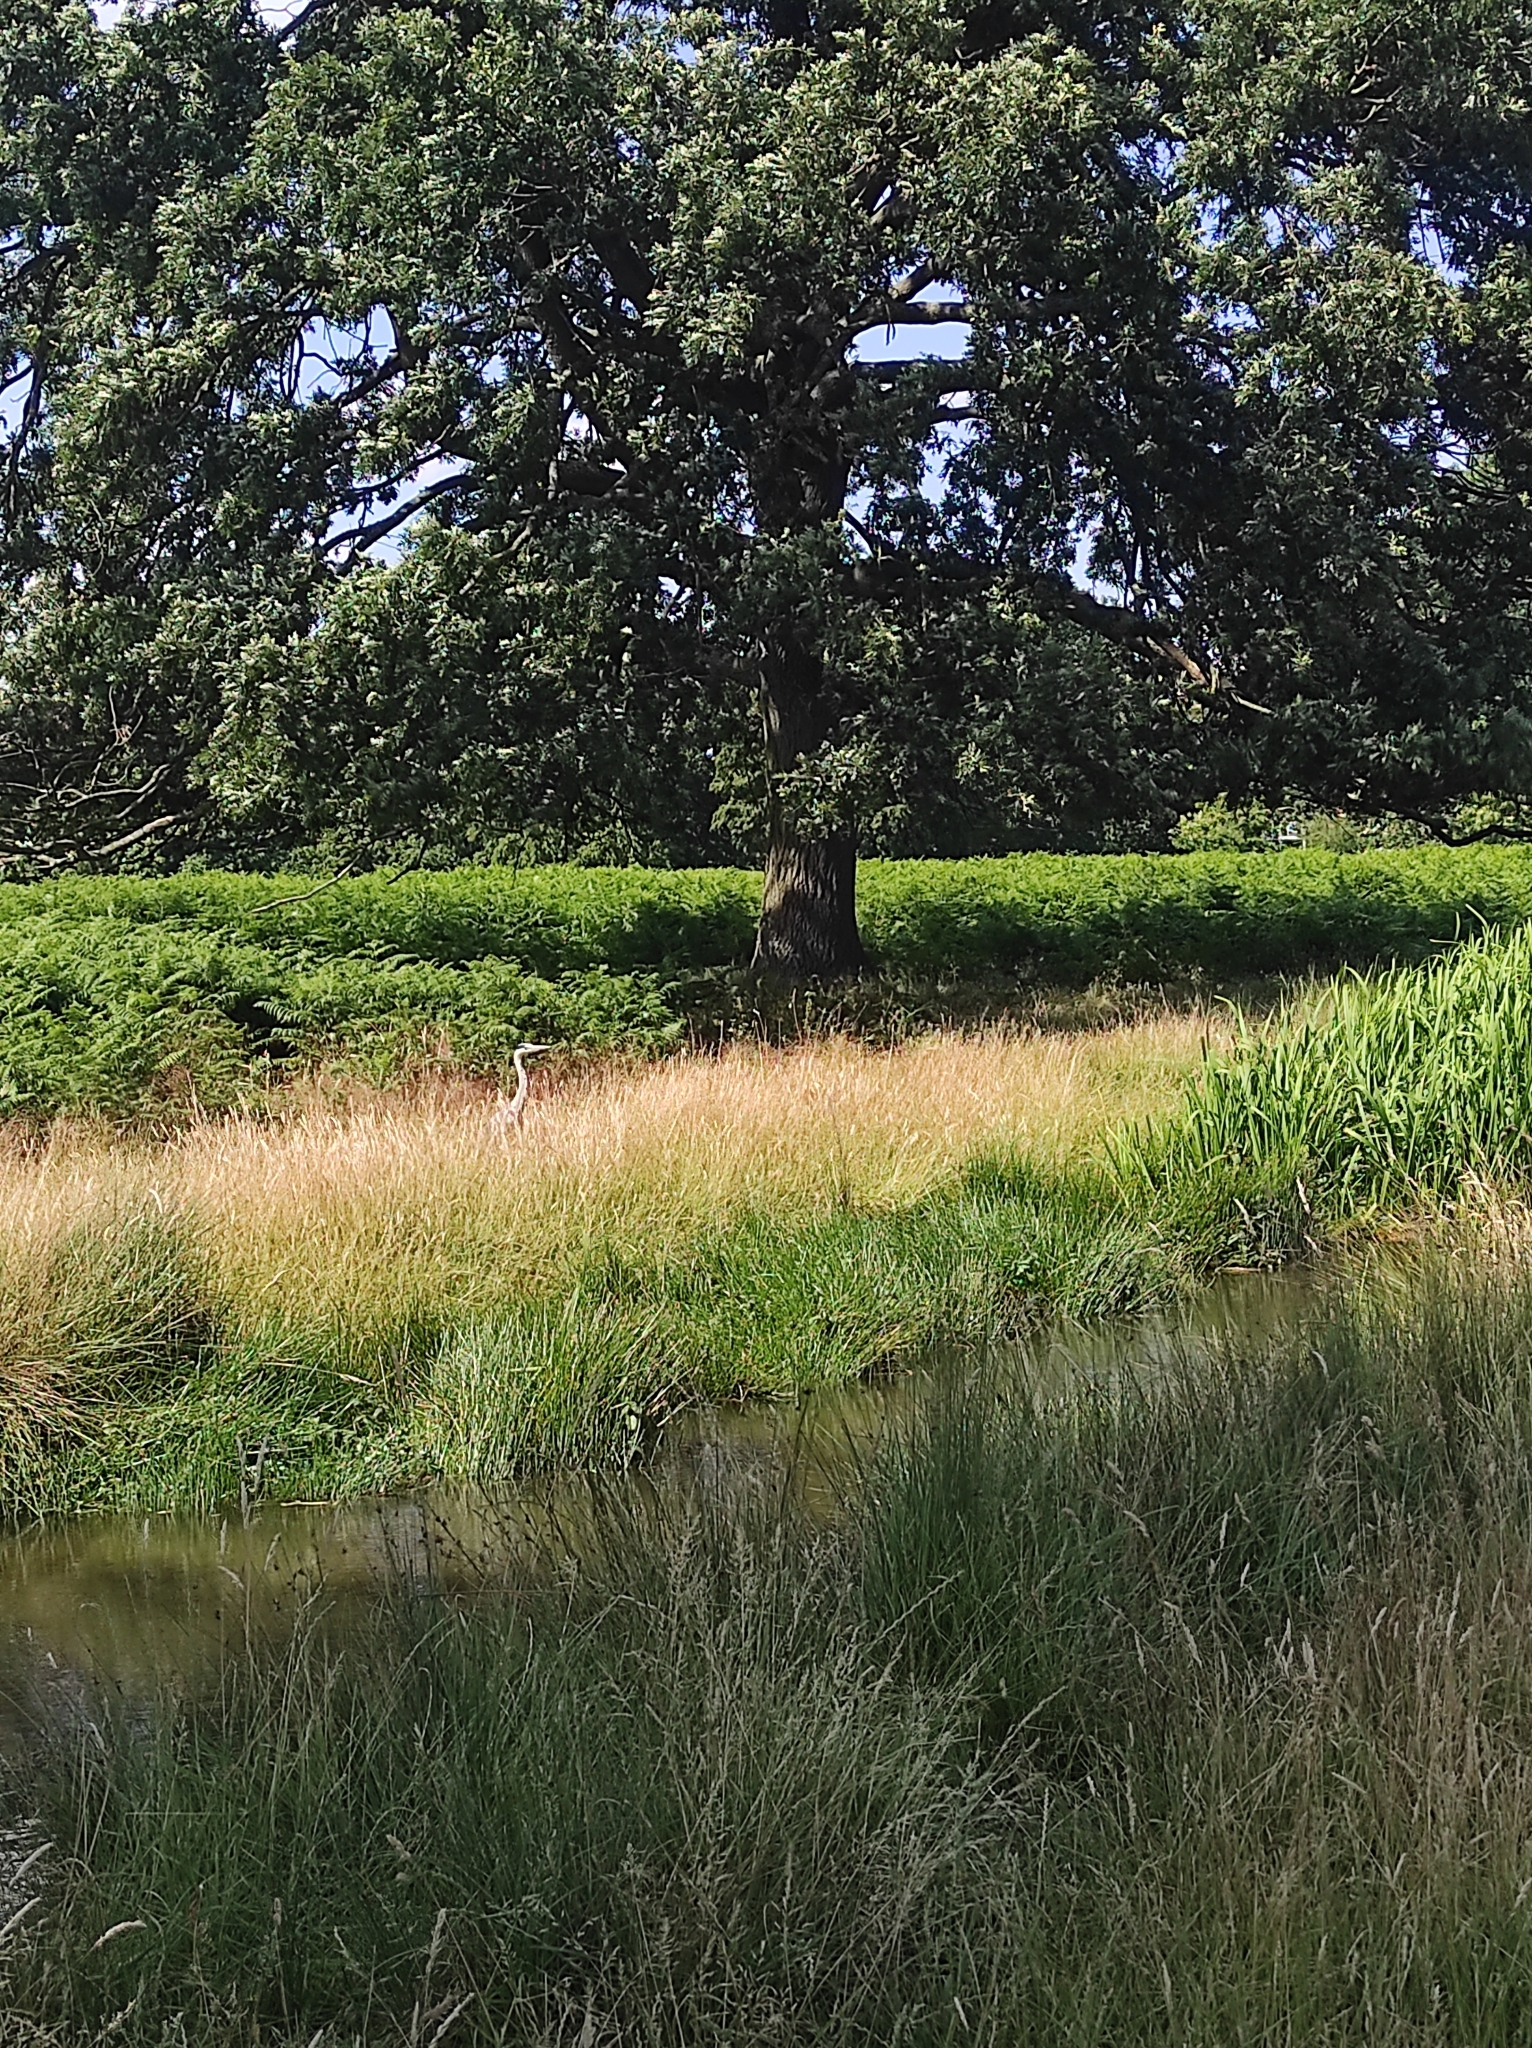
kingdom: Animalia
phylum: Chordata
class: Aves
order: Pelecaniformes
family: Ardeidae
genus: Ardea
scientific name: Ardea cinerea
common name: Grey heron
